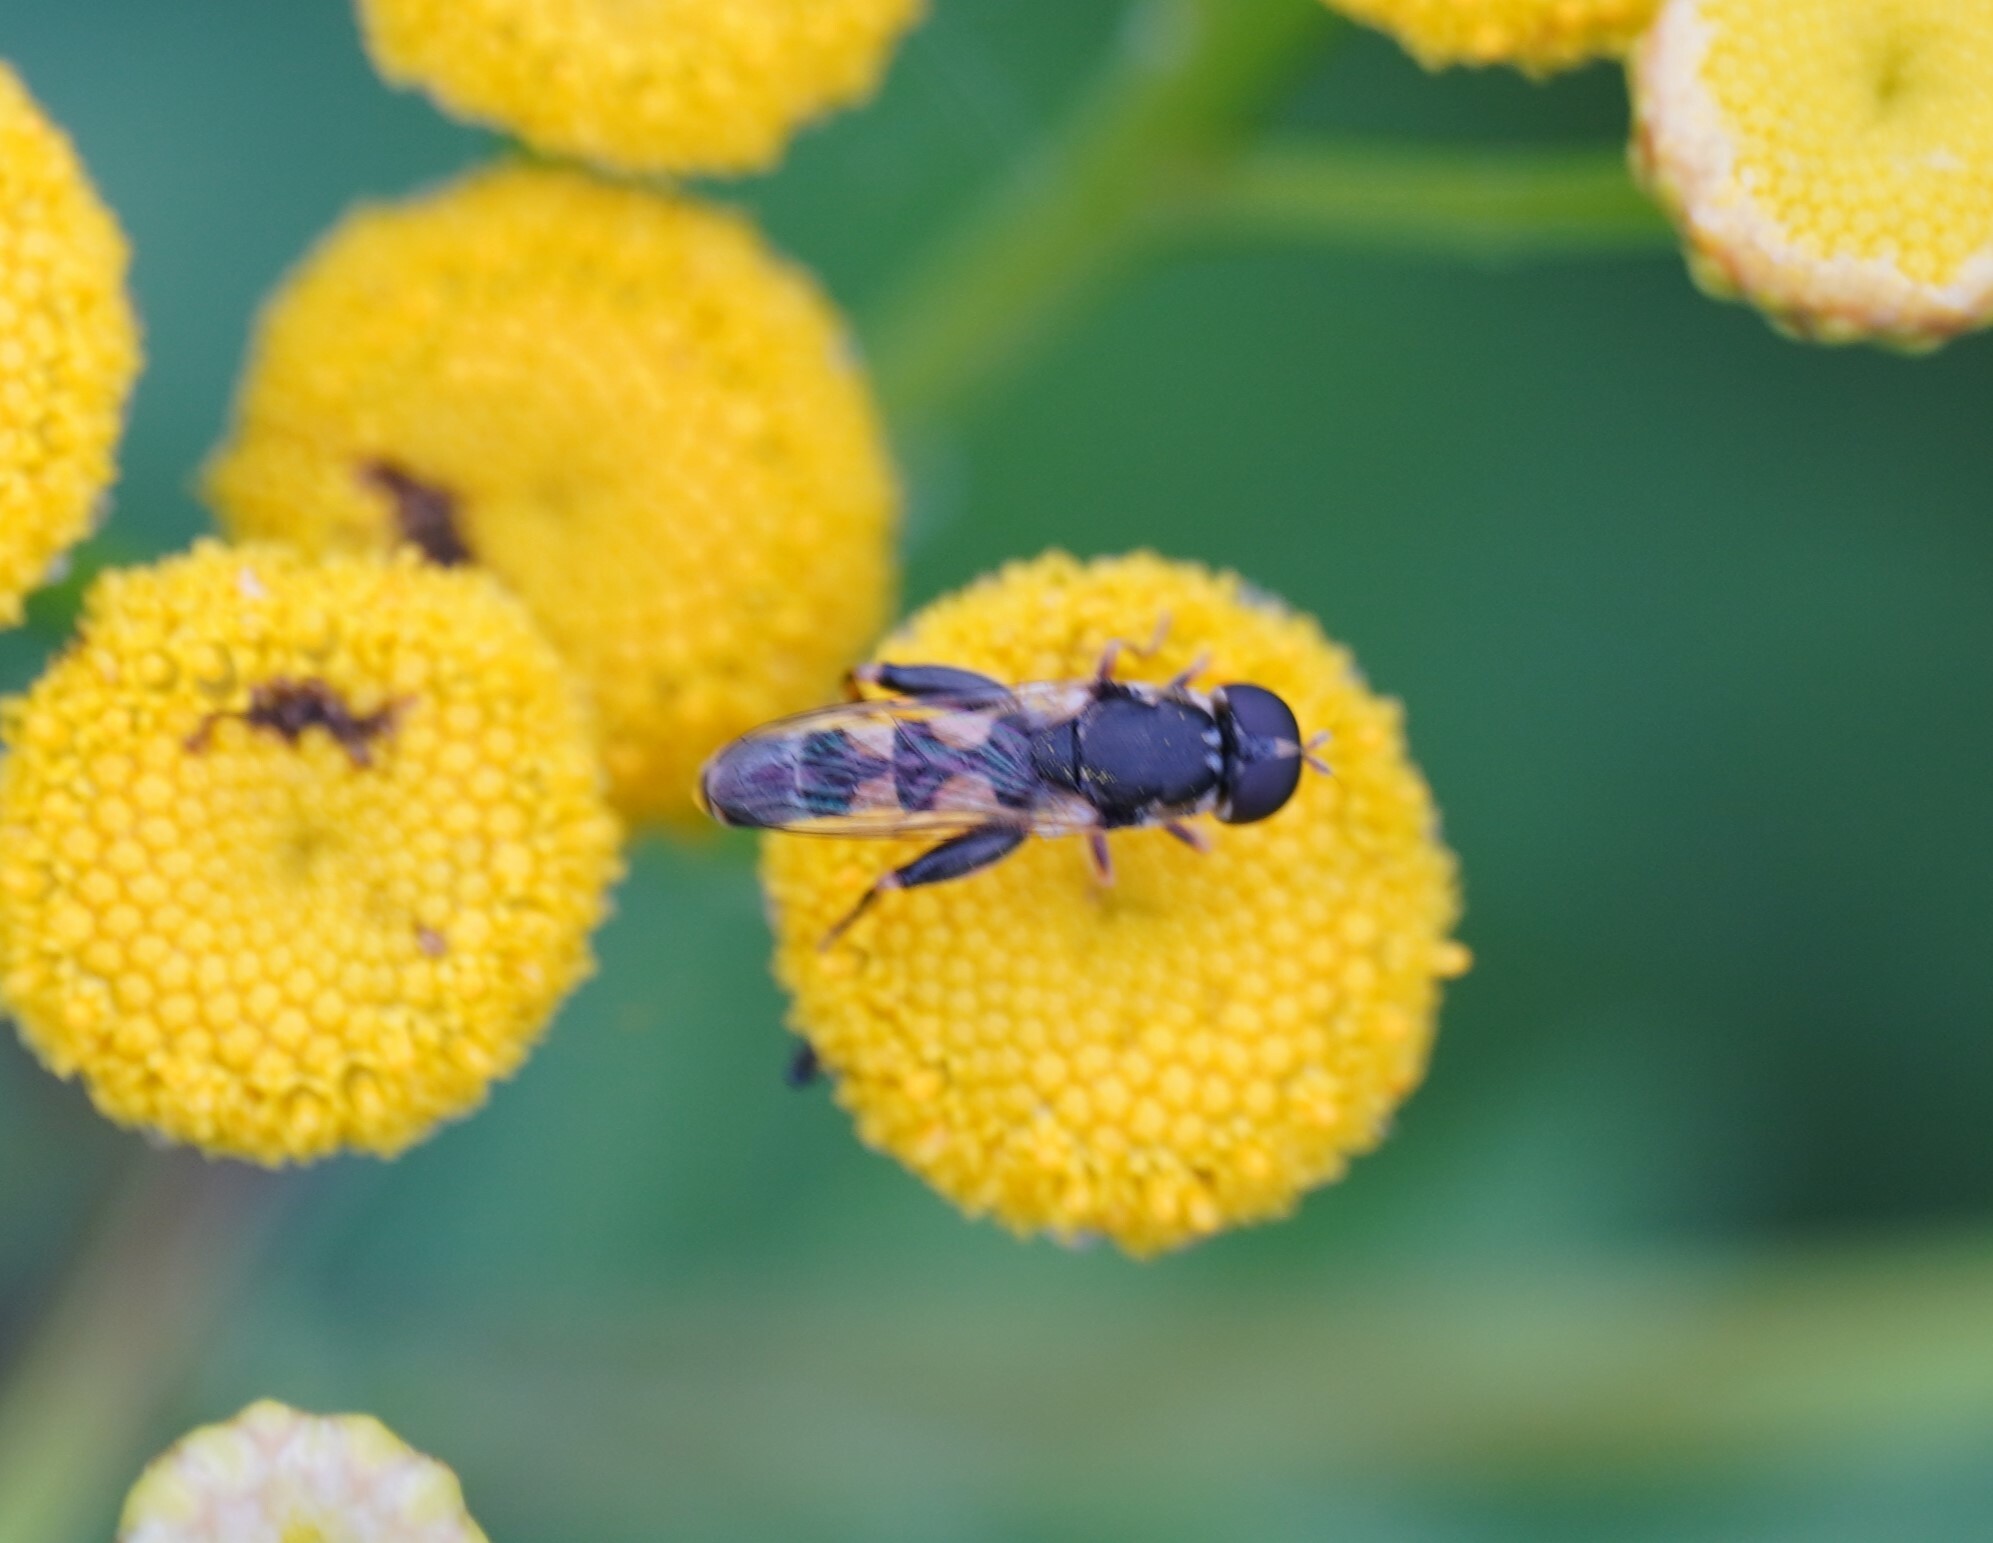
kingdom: Animalia
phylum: Arthropoda
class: Insecta
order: Diptera
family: Syrphidae
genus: Syritta
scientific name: Syritta pipiens
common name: Hover fly
